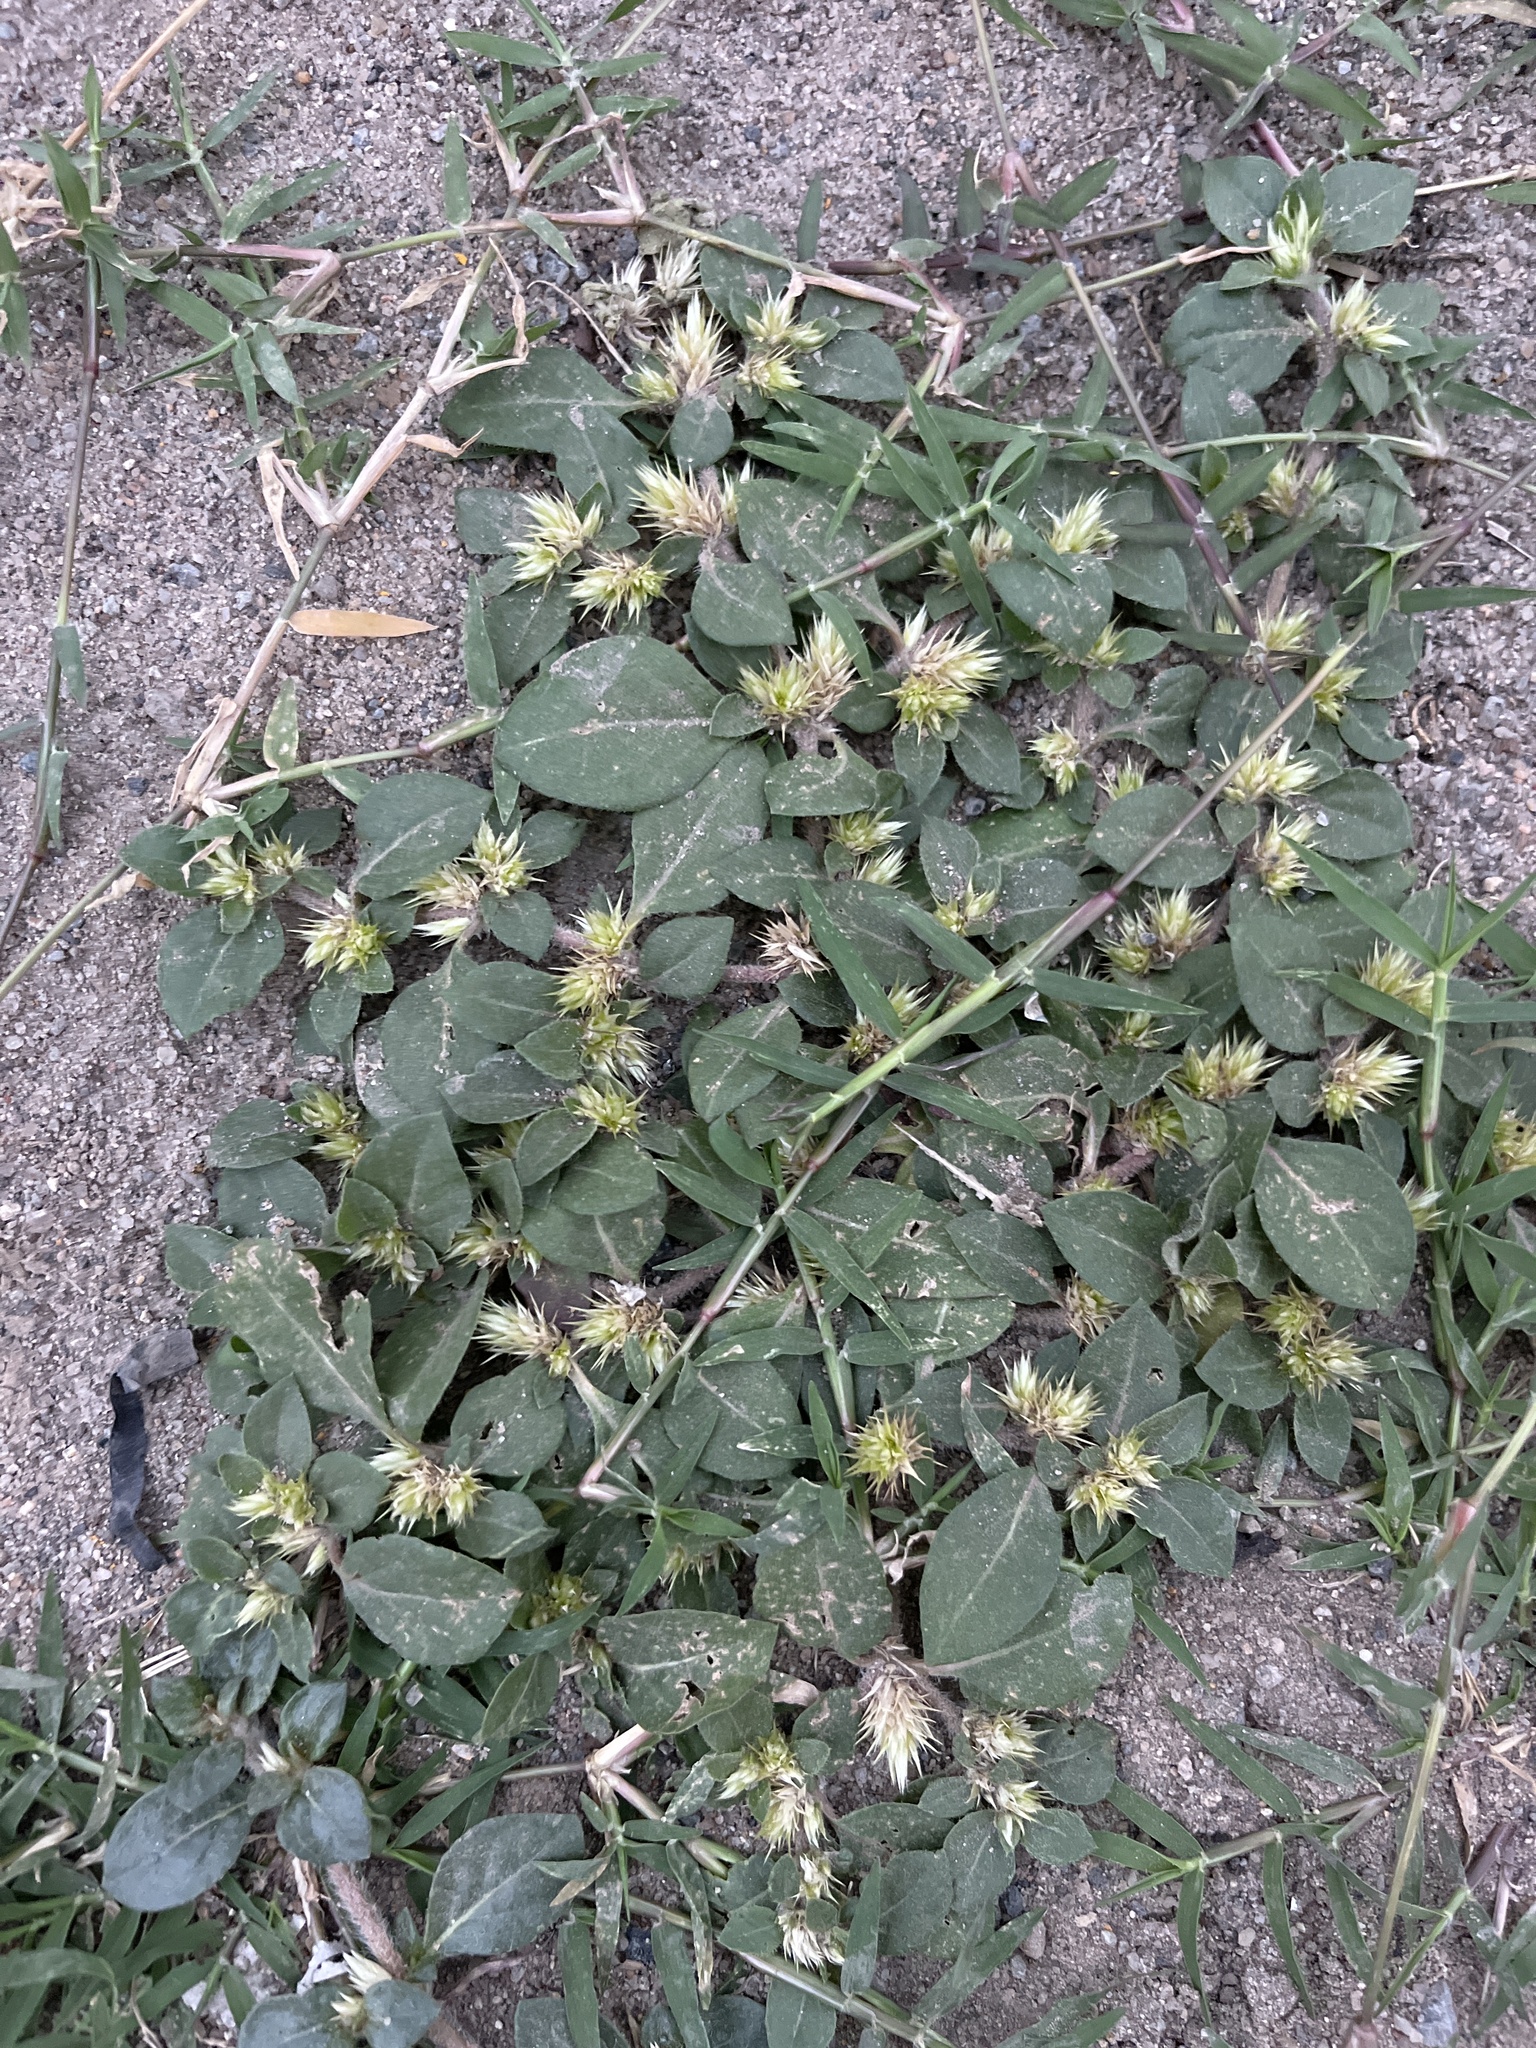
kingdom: Plantae
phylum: Tracheophyta
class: Magnoliopsida
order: Caryophyllales
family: Amaranthaceae
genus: Alternanthera
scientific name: Alternanthera pungens
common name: Khakiweed
